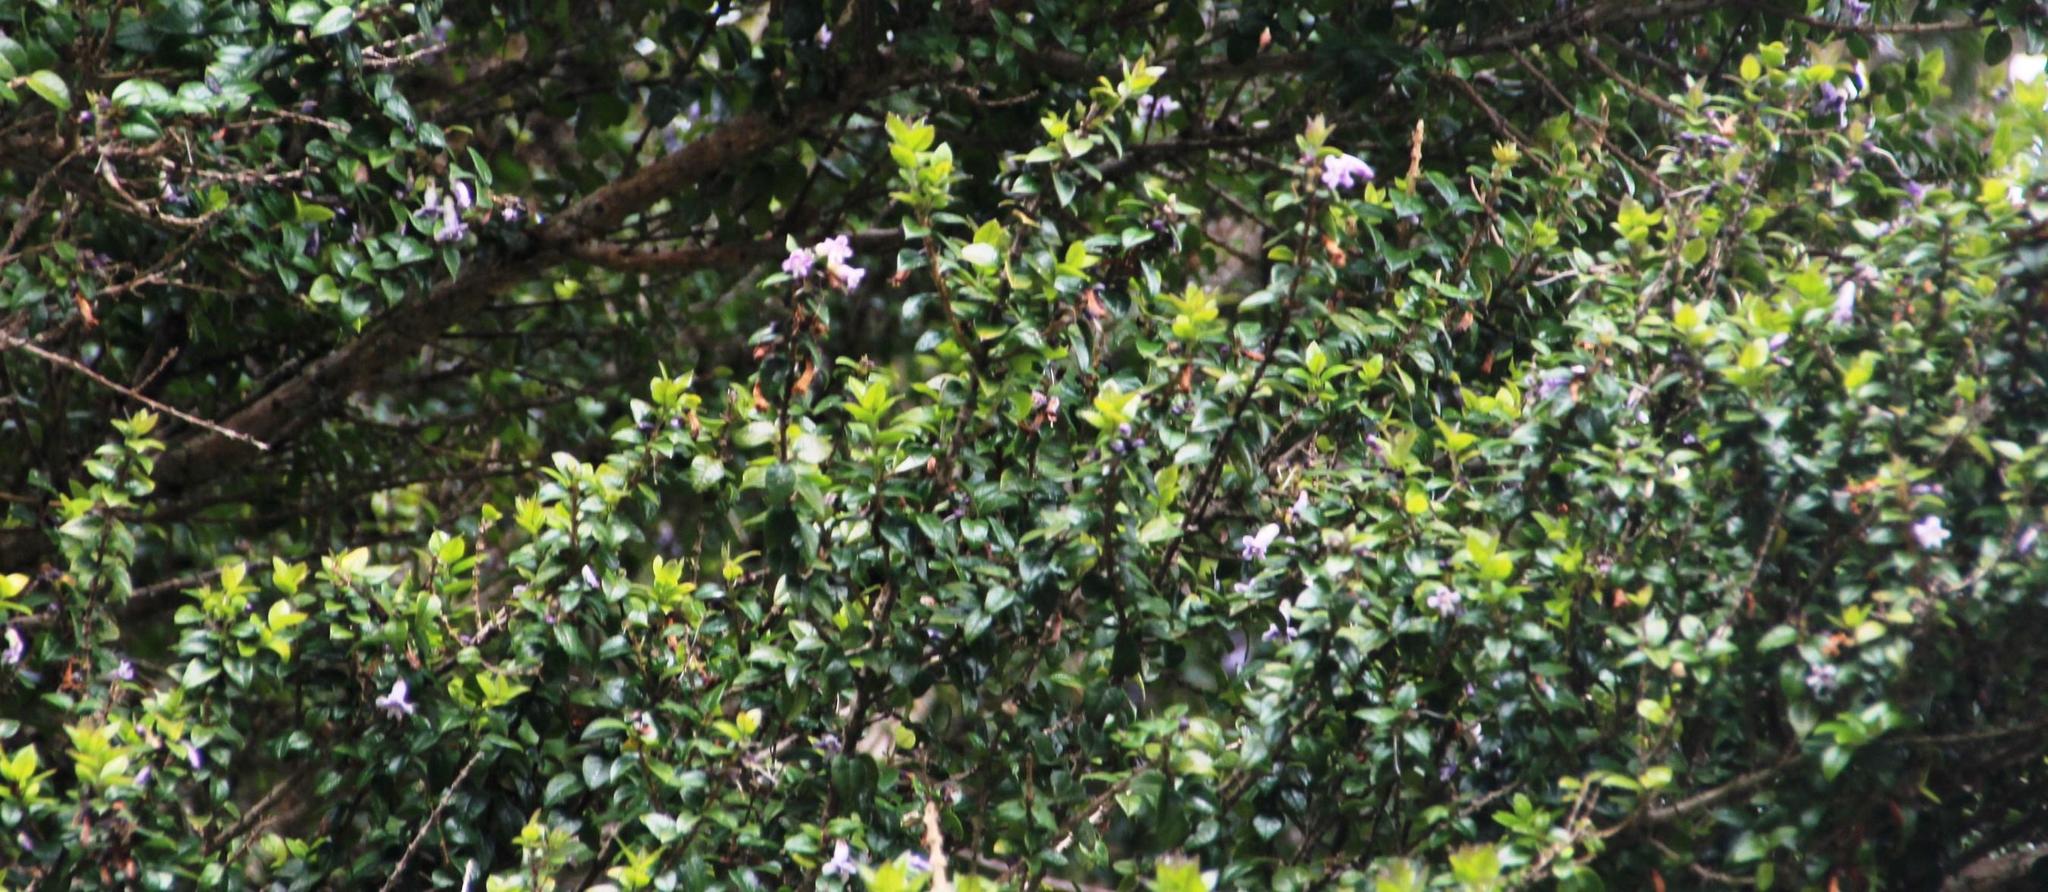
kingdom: Plantae
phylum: Tracheophyta
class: Magnoliopsida
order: Lamiales
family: Verbenaceae
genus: Rhaphithamnus
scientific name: Rhaphithamnus spinosus
